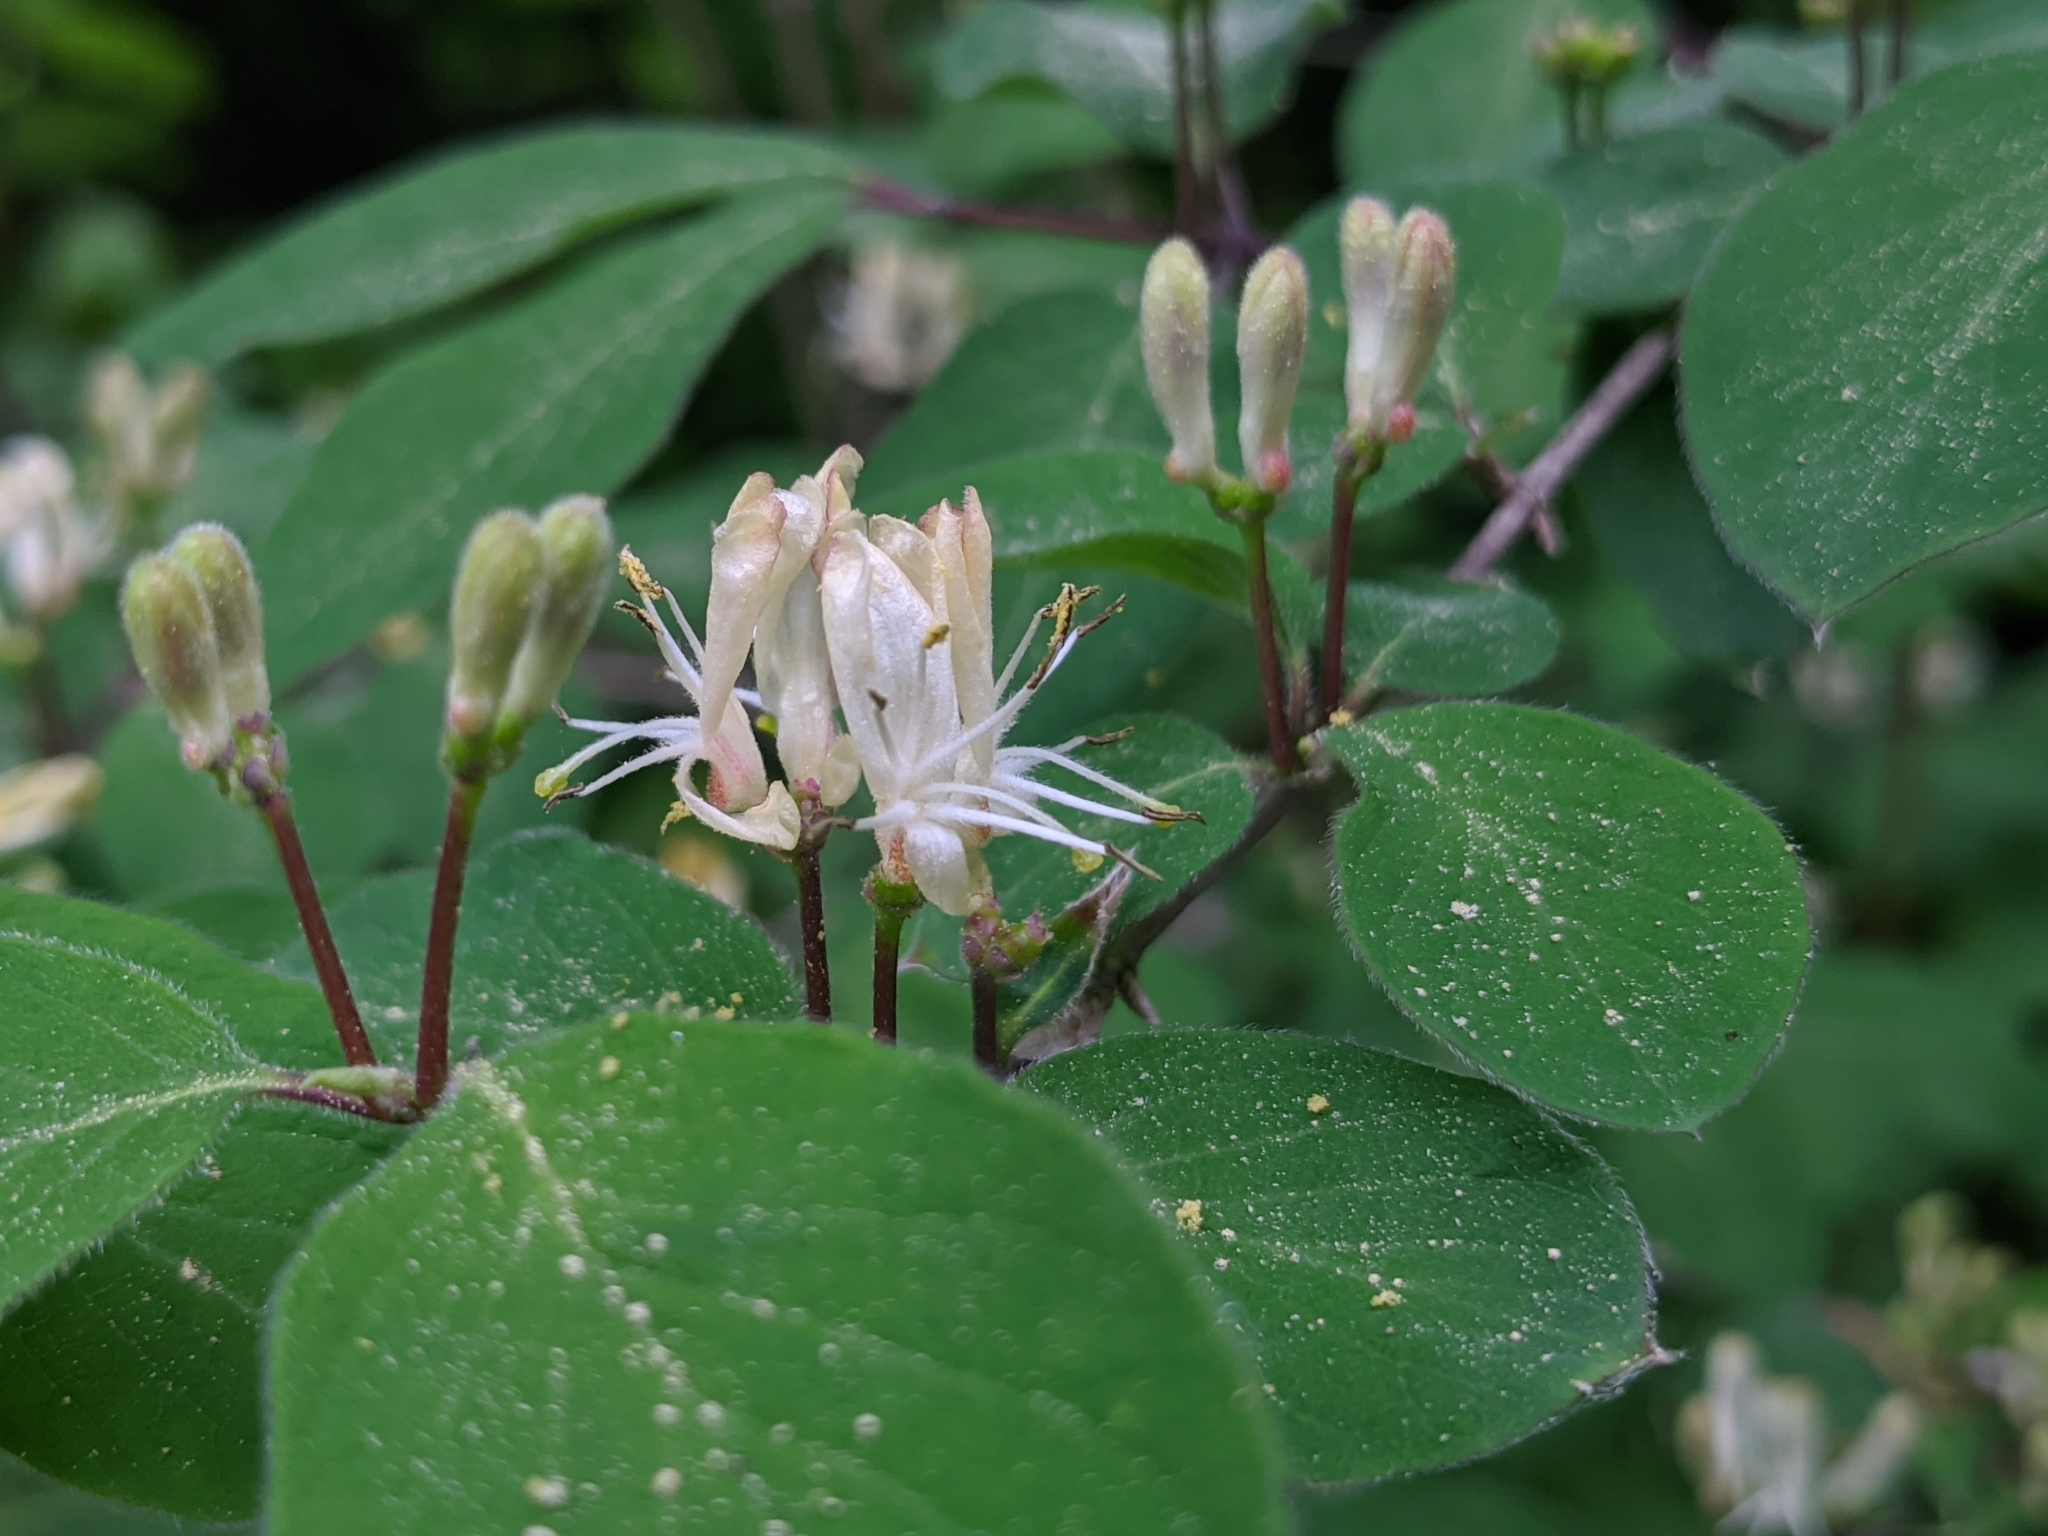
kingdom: Plantae
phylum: Tracheophyta
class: Magnoliopsida
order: Dipsacales
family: Caprifoliaceae
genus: Lonicera
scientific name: Lonicera xylosteum
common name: Fly honeysuckle
